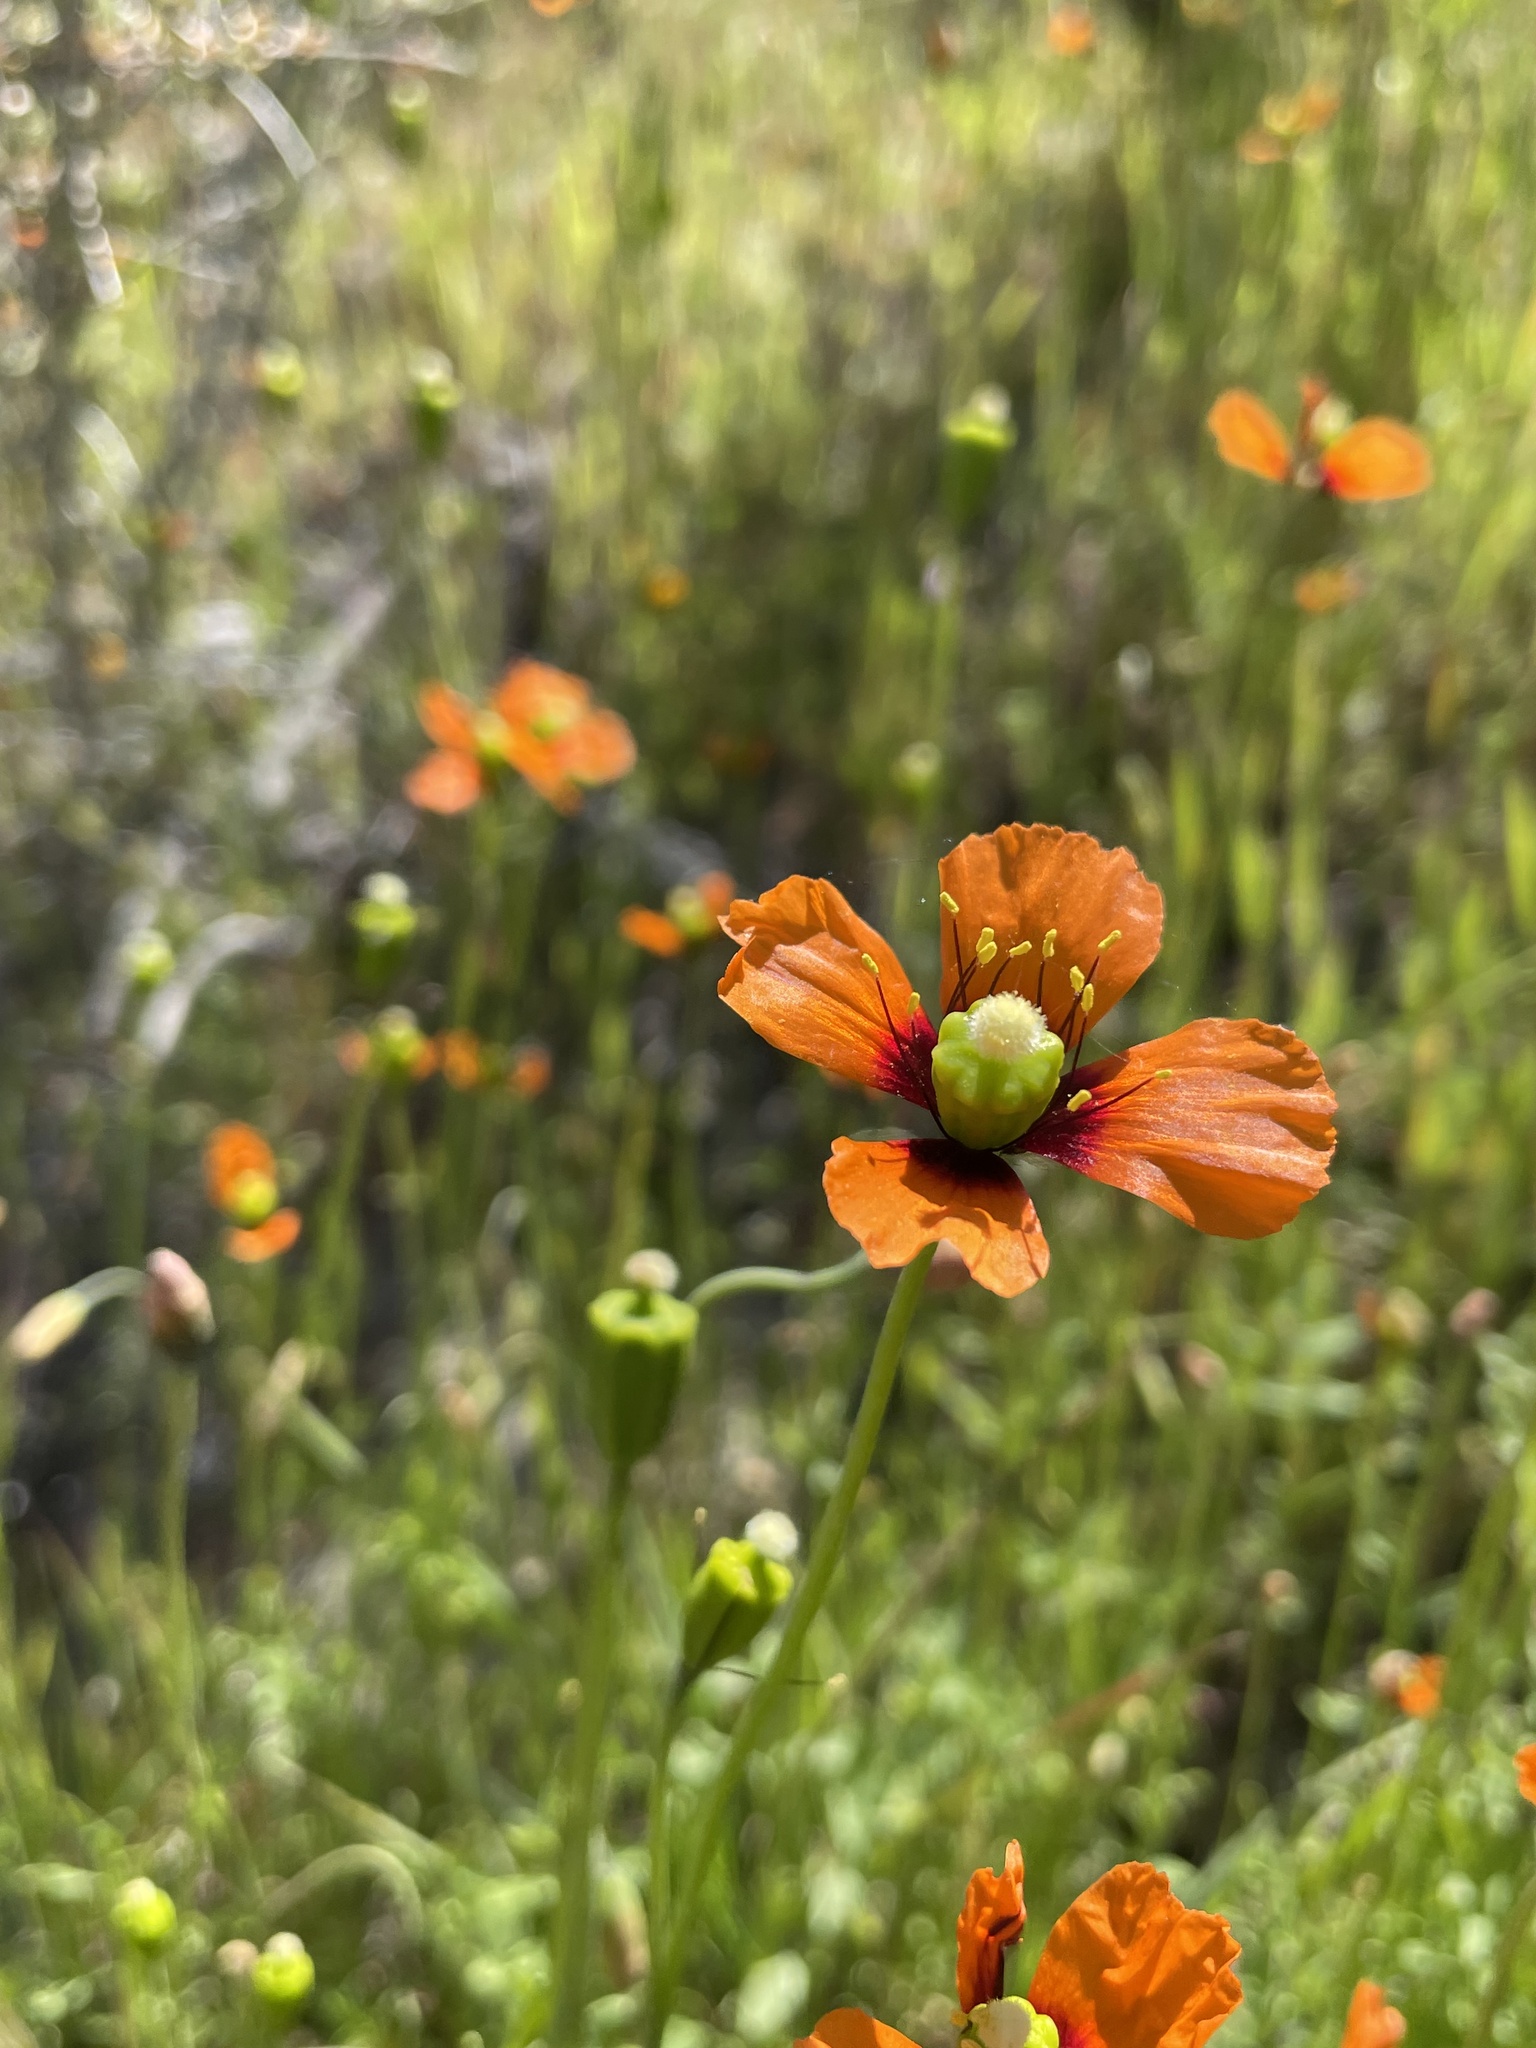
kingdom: Plantae
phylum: Tracheophyta
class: Magnoliopsida
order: Ranunculales
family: Papaveraceae
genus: Stylomecon
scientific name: Stylomecon heterophylla
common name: Flaming-poppy
